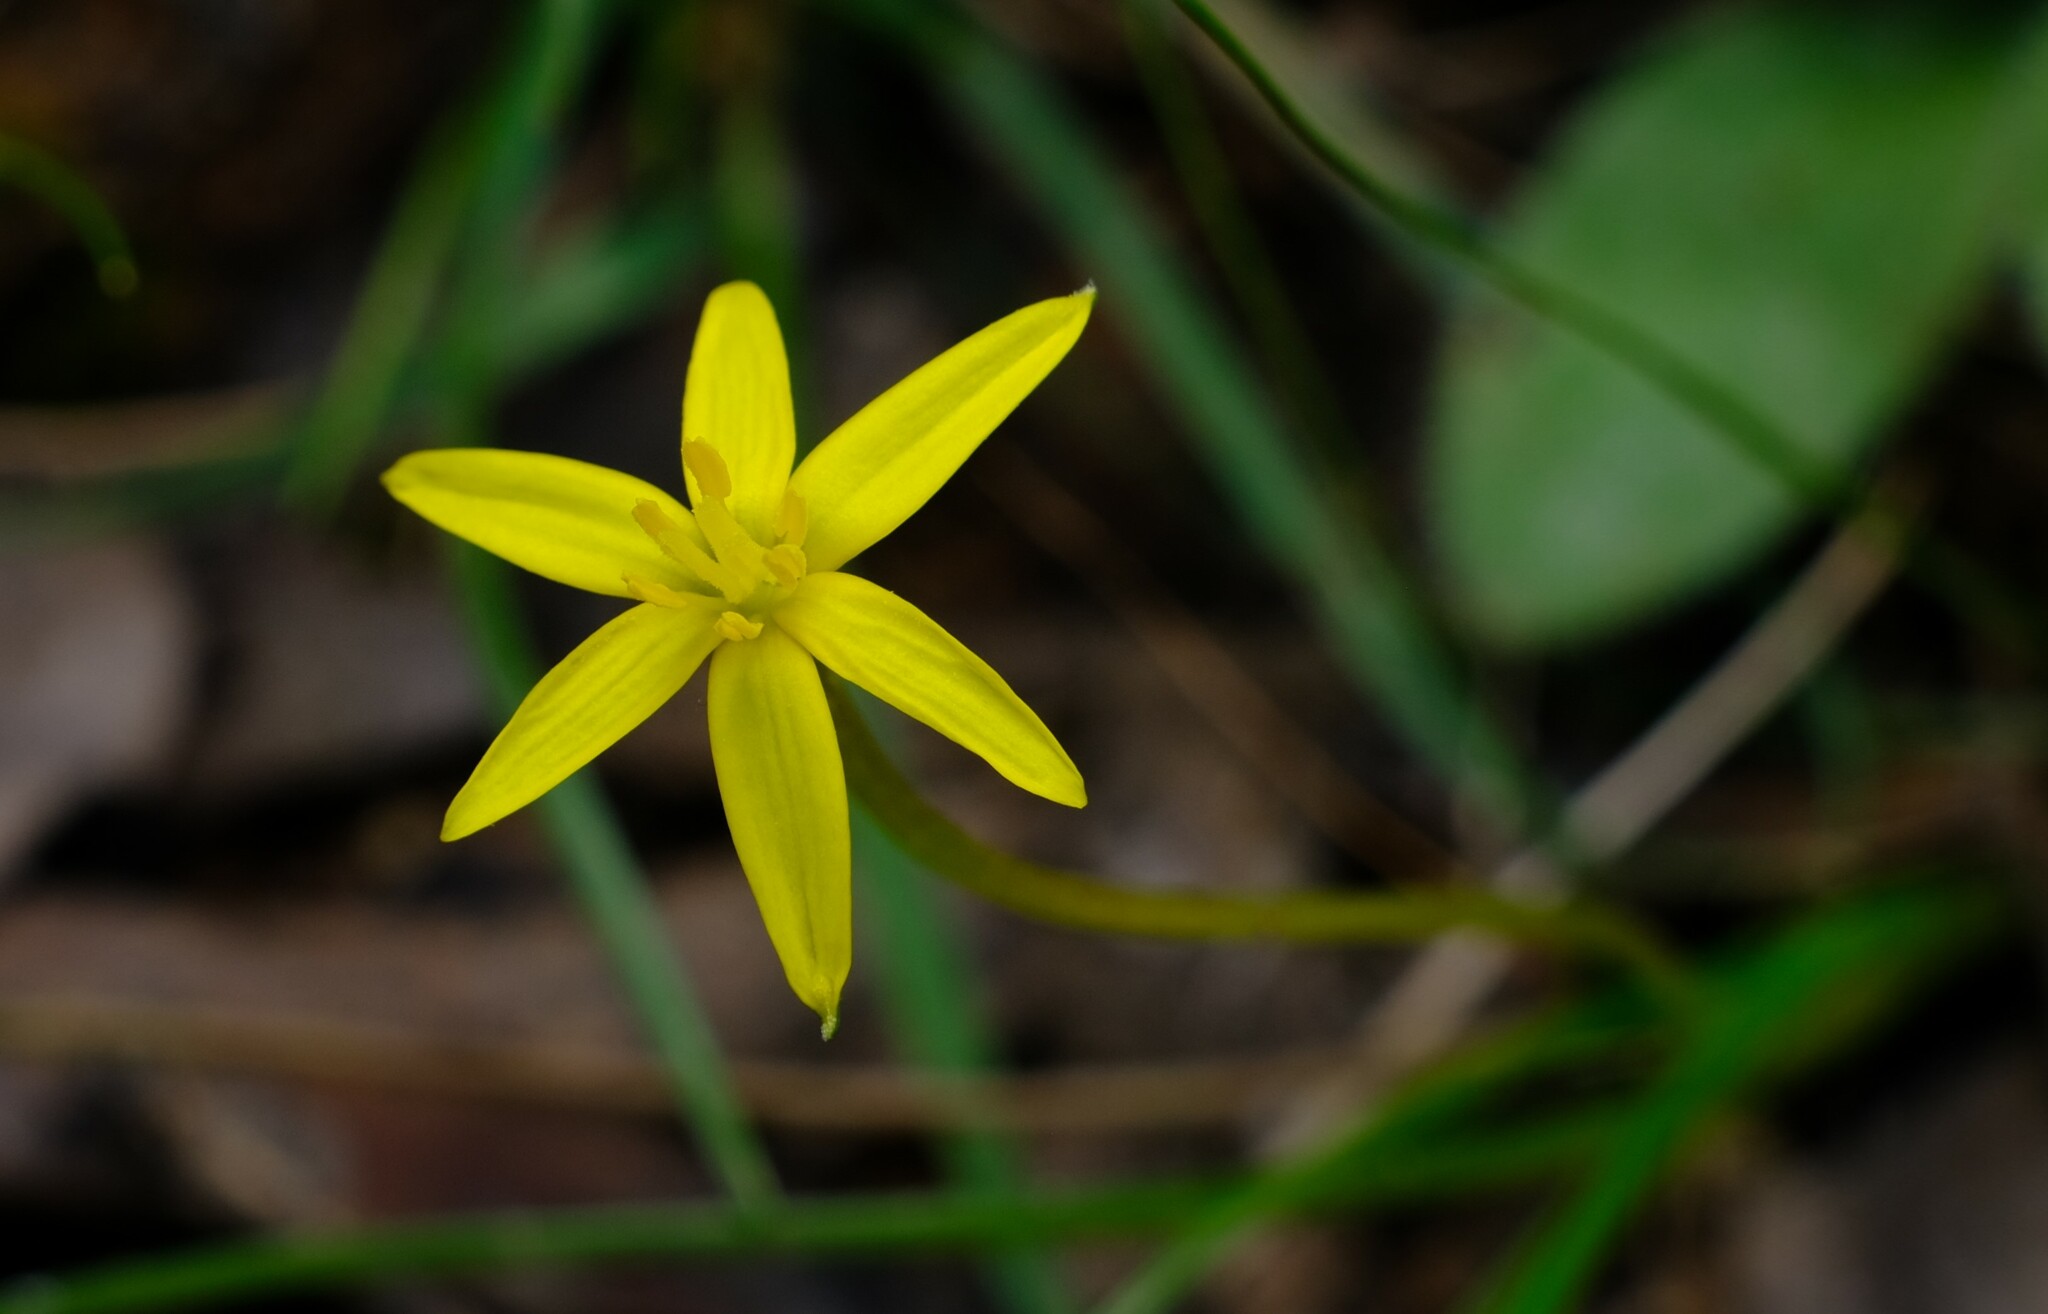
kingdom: Plantae
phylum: Tracheophyta
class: Liliopsida
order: Asparagales
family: Hypoxidaceae
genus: Pauridia
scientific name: Pauridia vaginata
